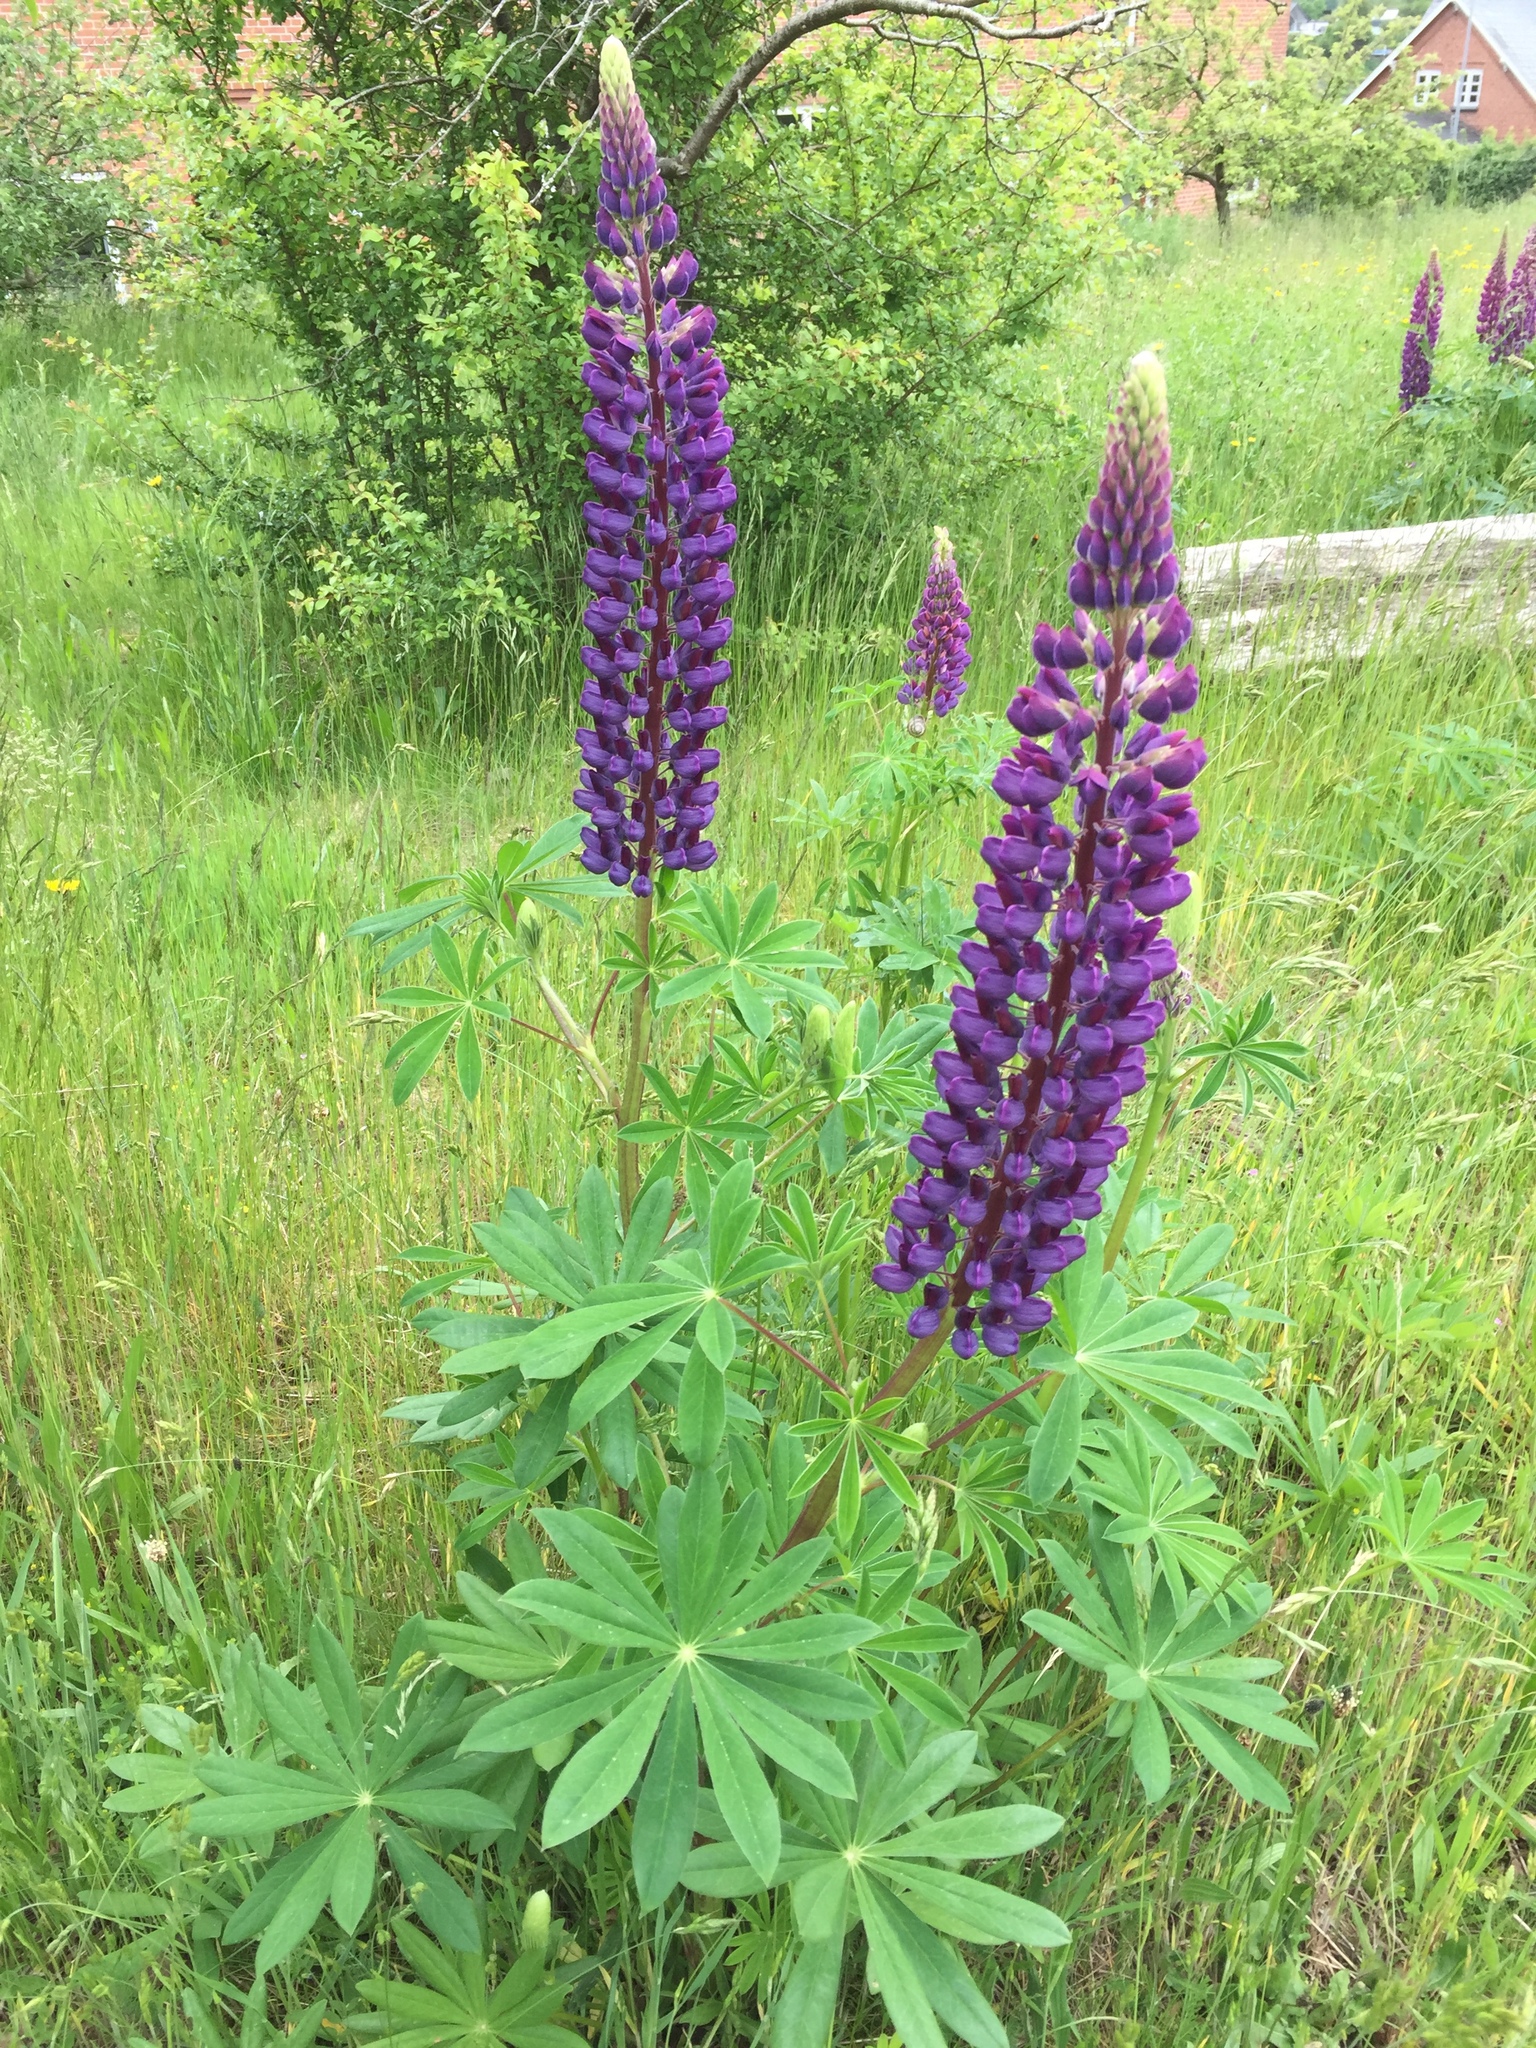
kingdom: Plantae
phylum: Tracheophyta
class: Magnoliopsida
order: Fabales
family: Fabaceae
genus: Lupinus
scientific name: Lupinus polyphyllus
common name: Garden lupin
